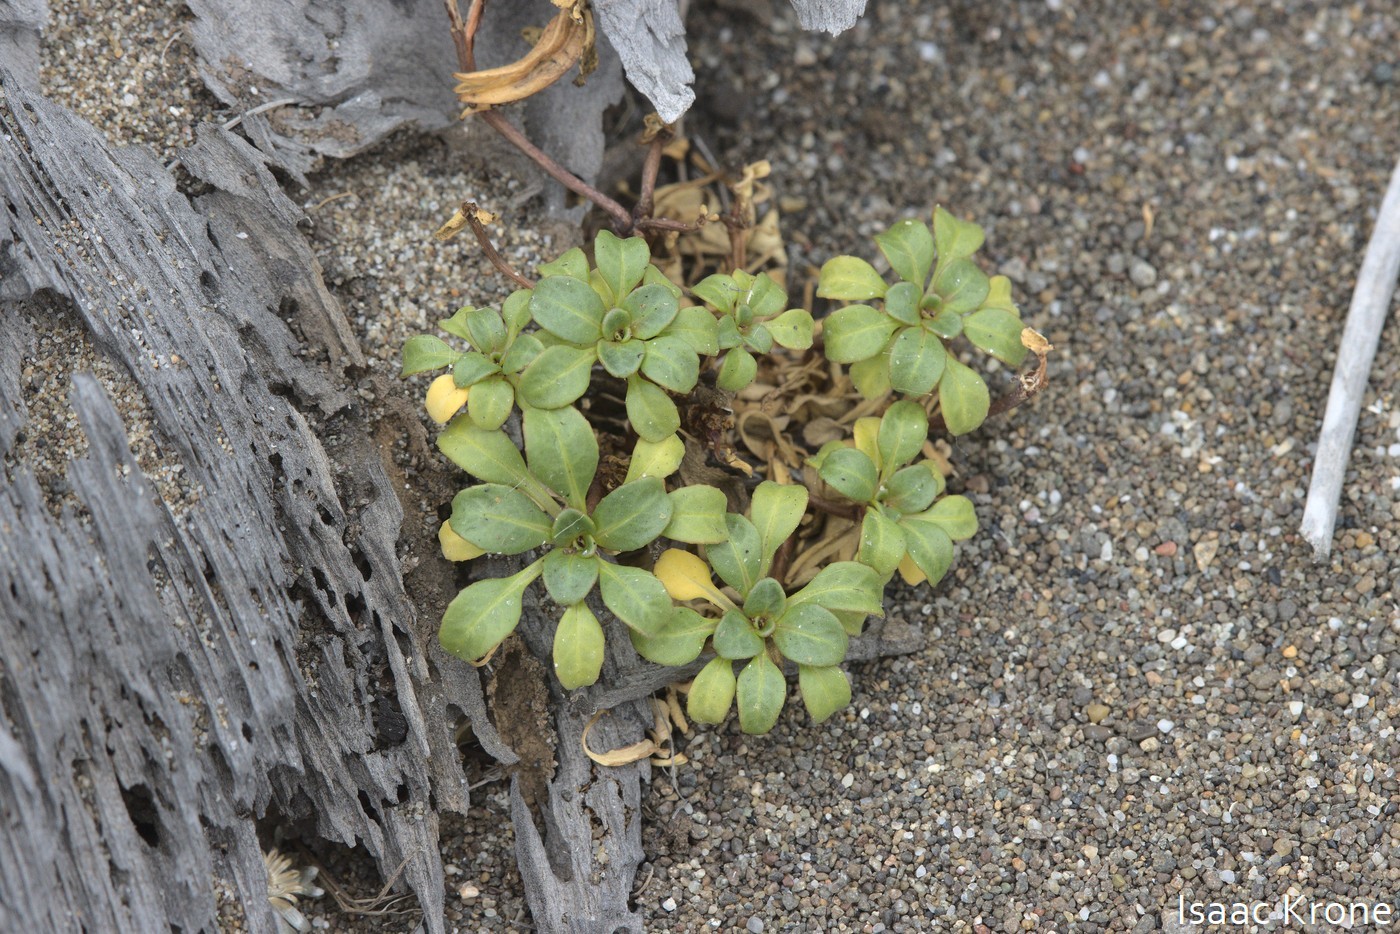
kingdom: Plantae
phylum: Tracheophyta
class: Magnoliopsida
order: Asterales
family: Asteraceae
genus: Erigeron
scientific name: Erigeron glaucus
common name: Seaside daisy
